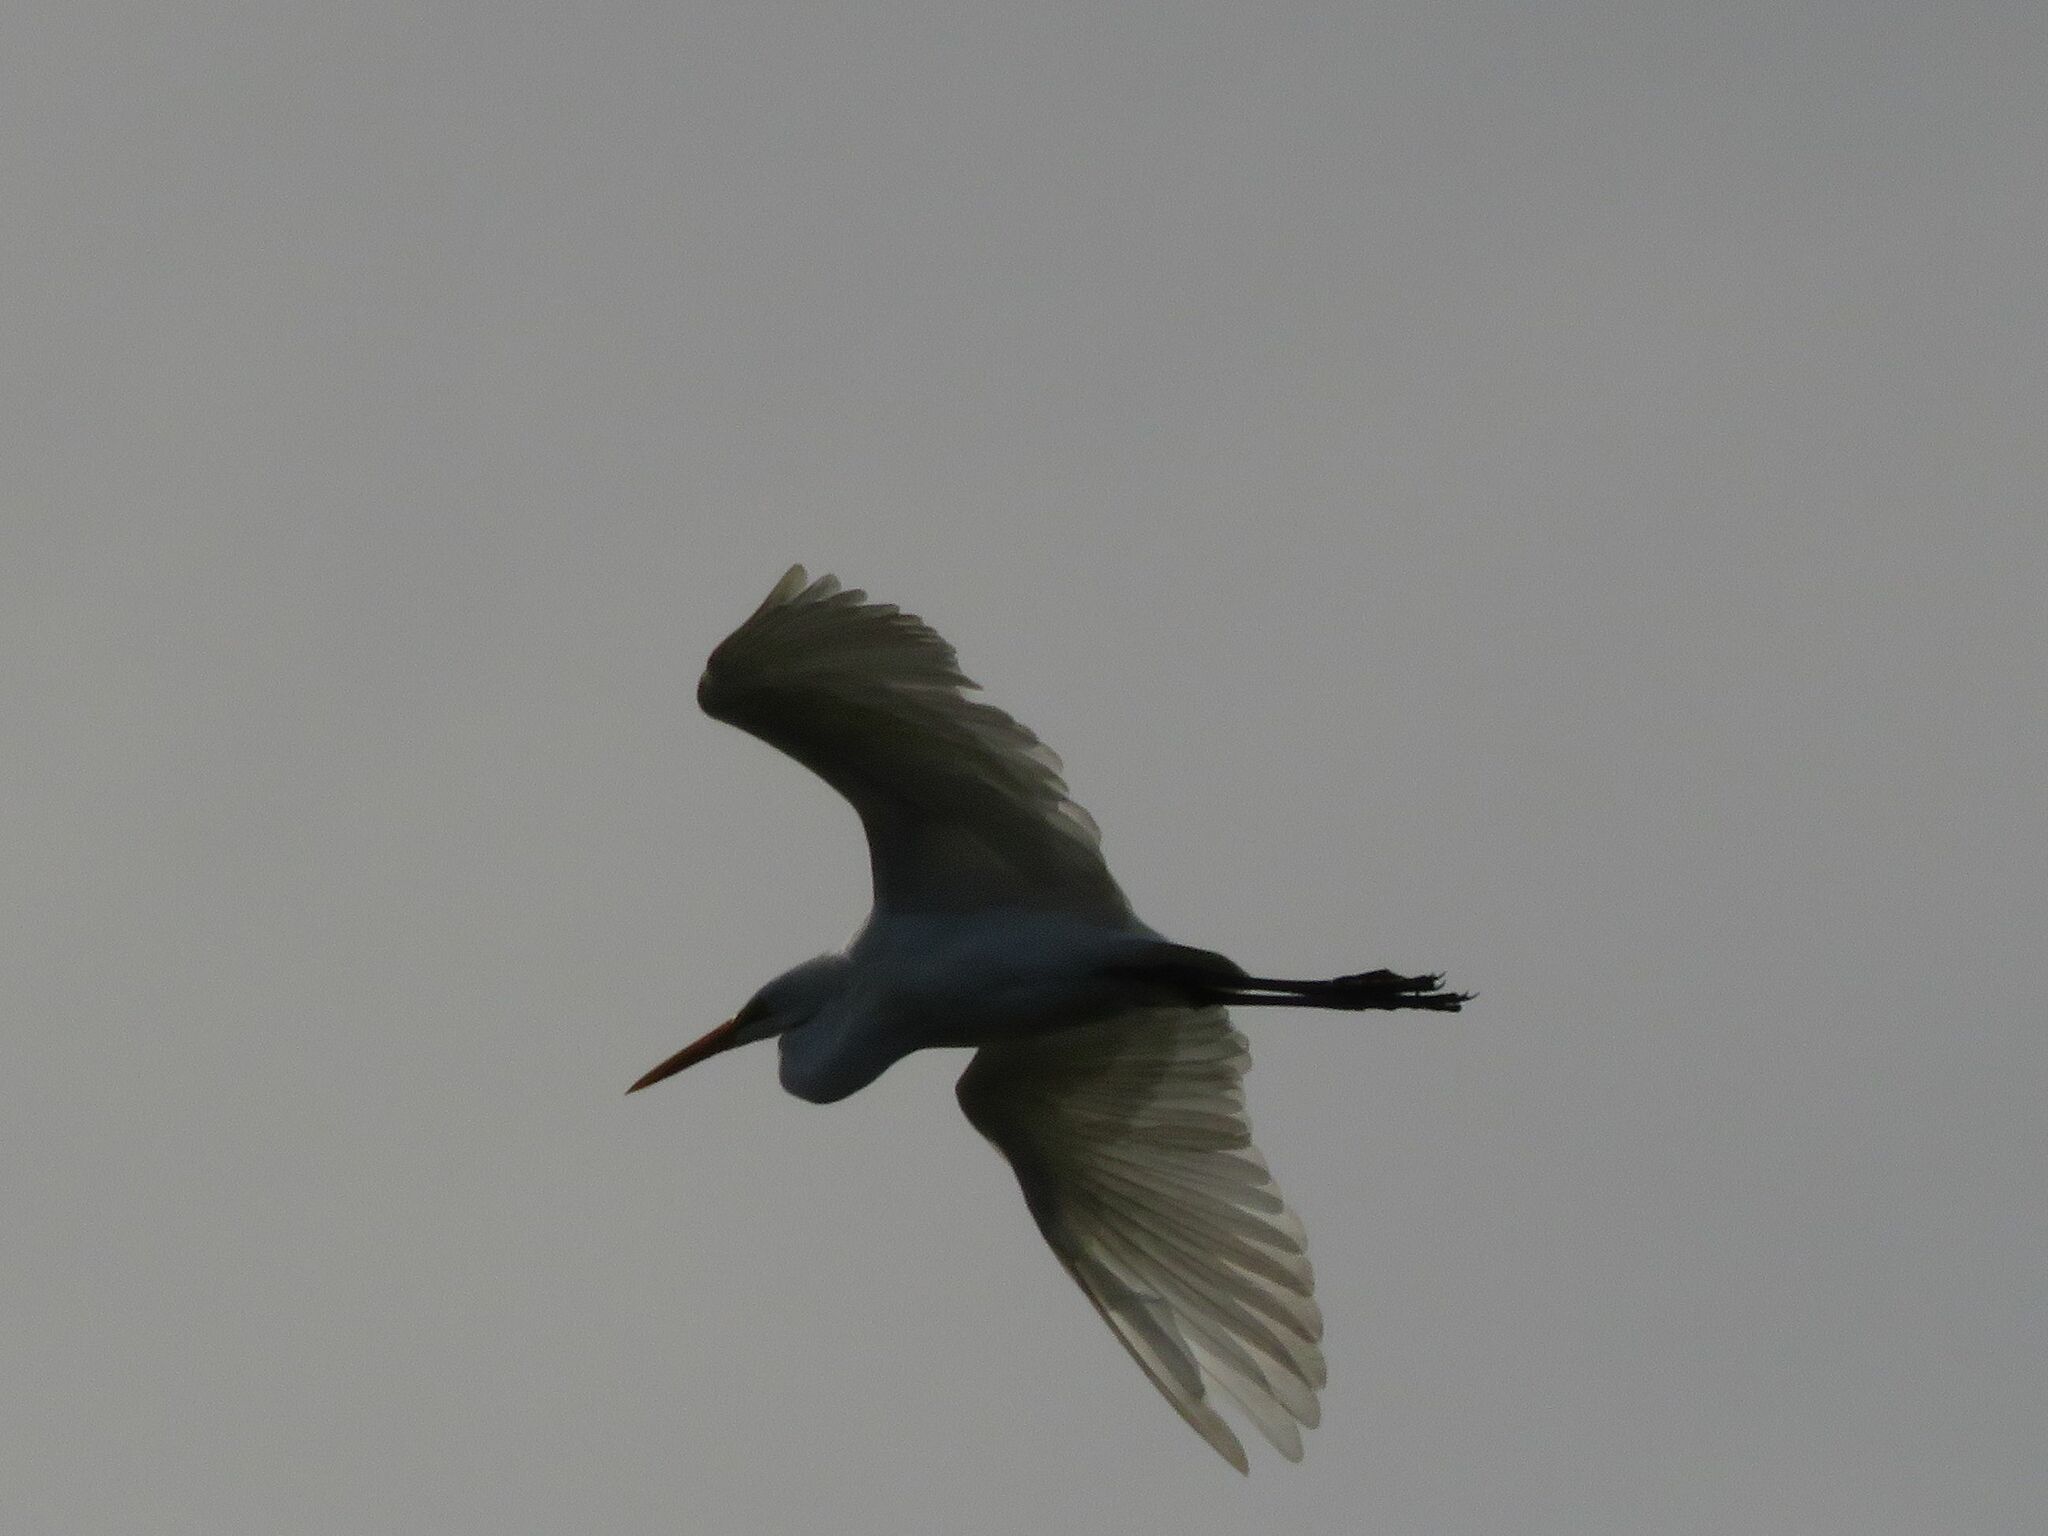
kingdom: Animalia
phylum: Chordata
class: Aves
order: Pelecaniformes
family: Ardeidae
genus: Ardea
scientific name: Ardea alba
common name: Great egret
